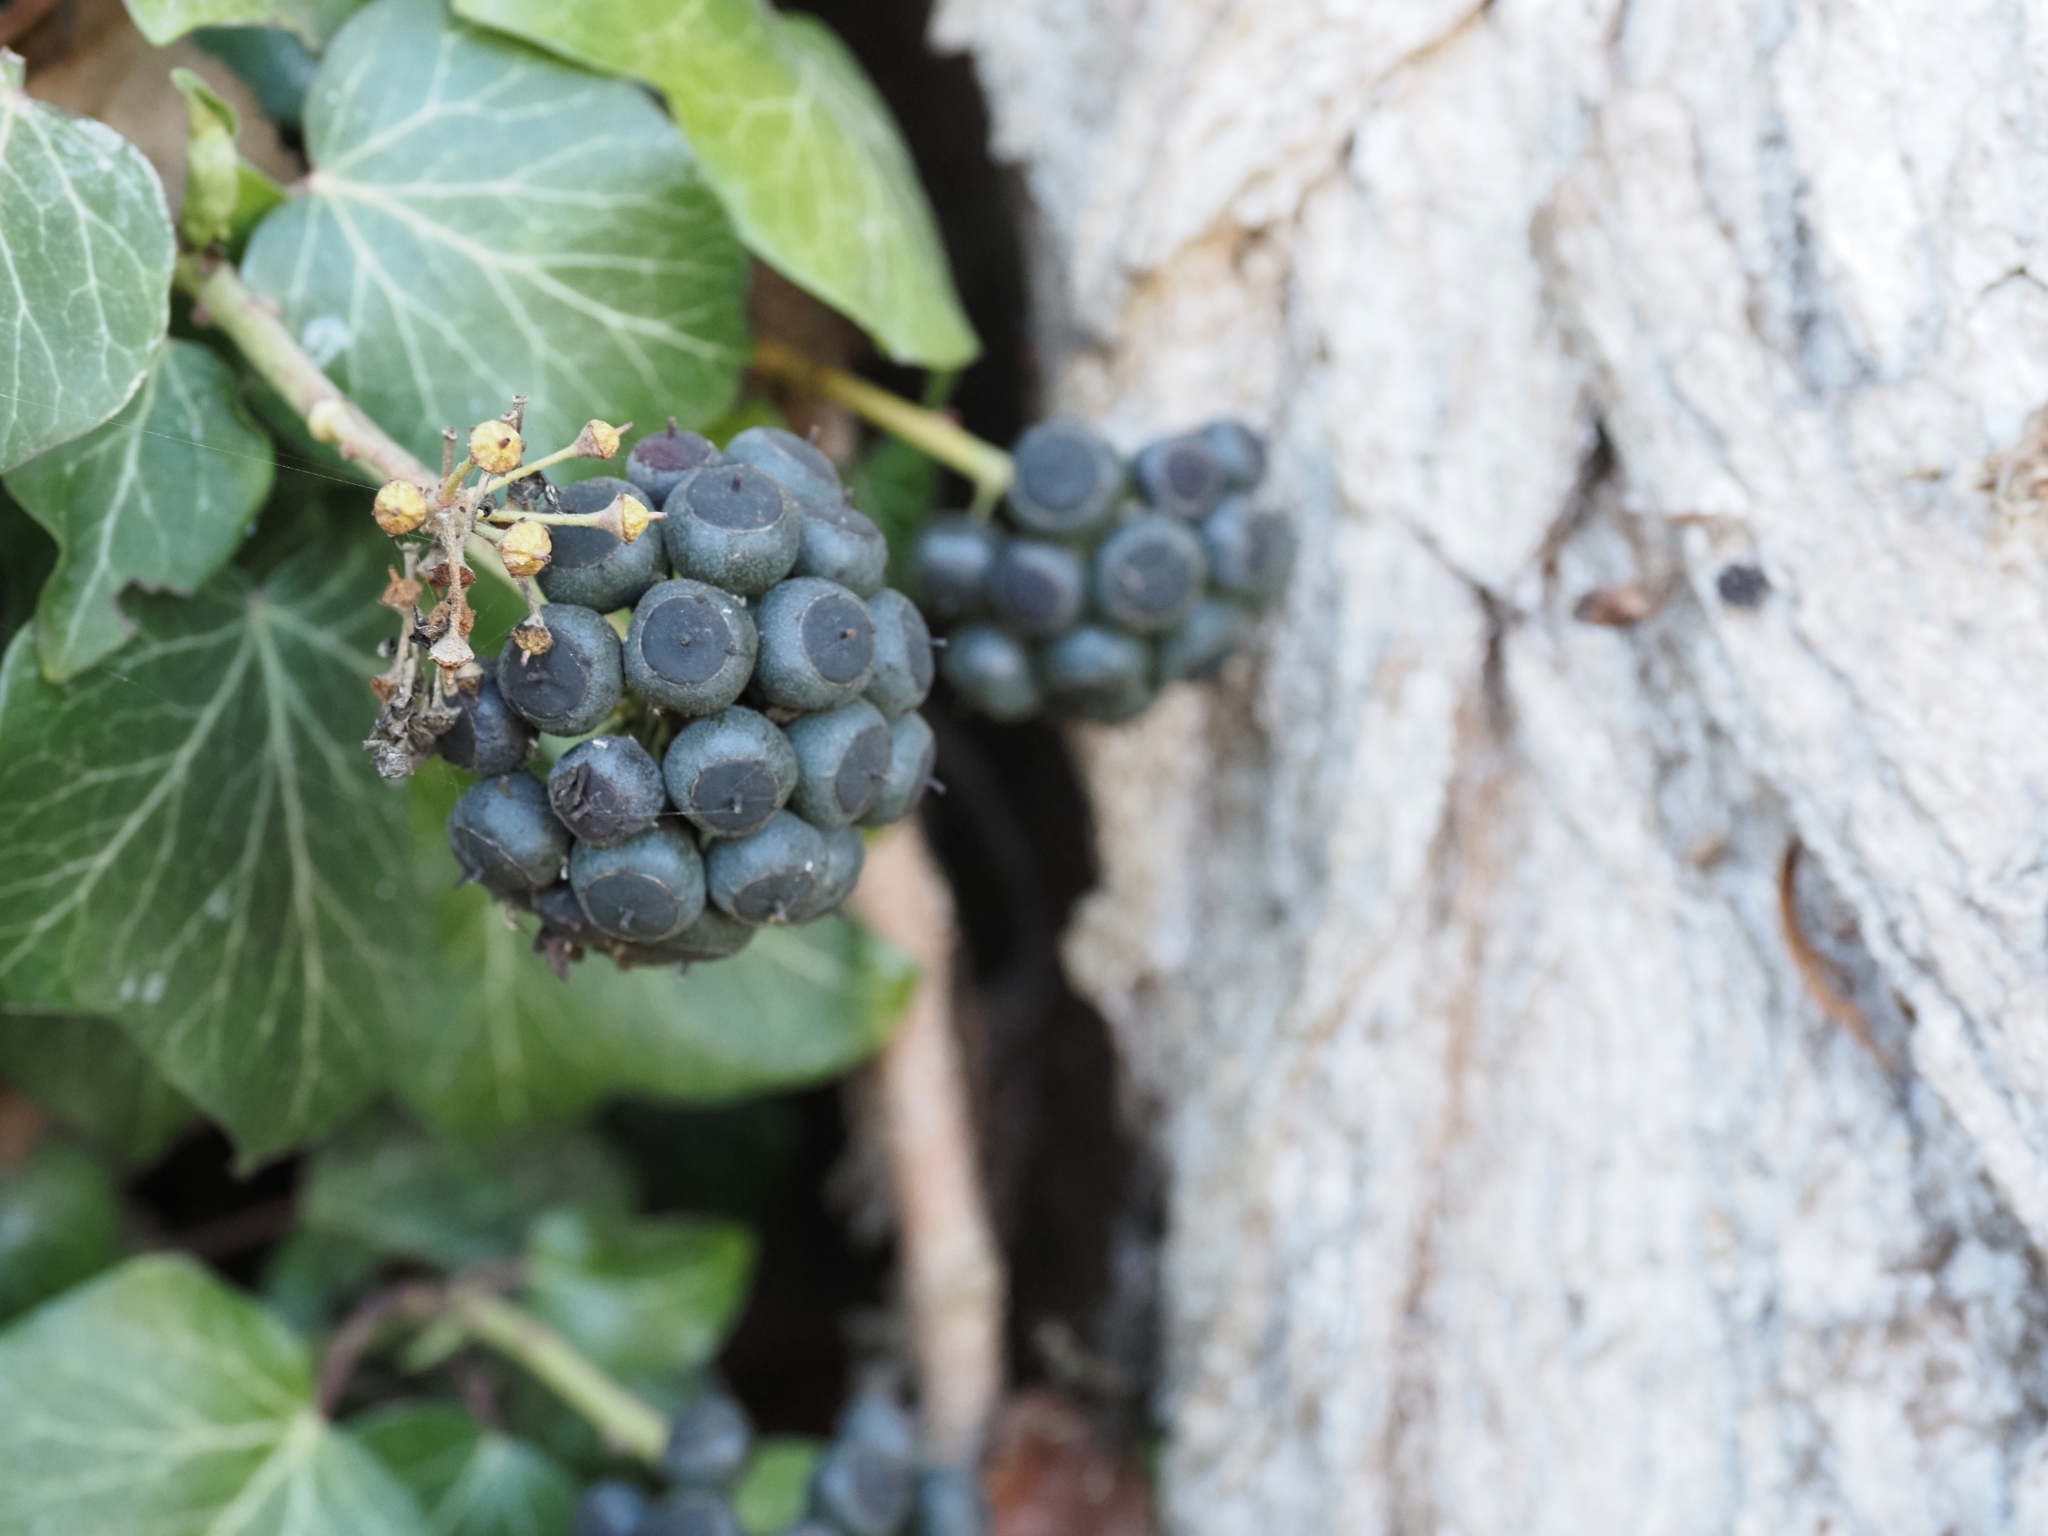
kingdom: Plantae
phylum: Tracheophyta
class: Magnoliopsida
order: Apiales
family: Araliaceae
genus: Hedera
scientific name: Hedera helix
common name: Ivy
